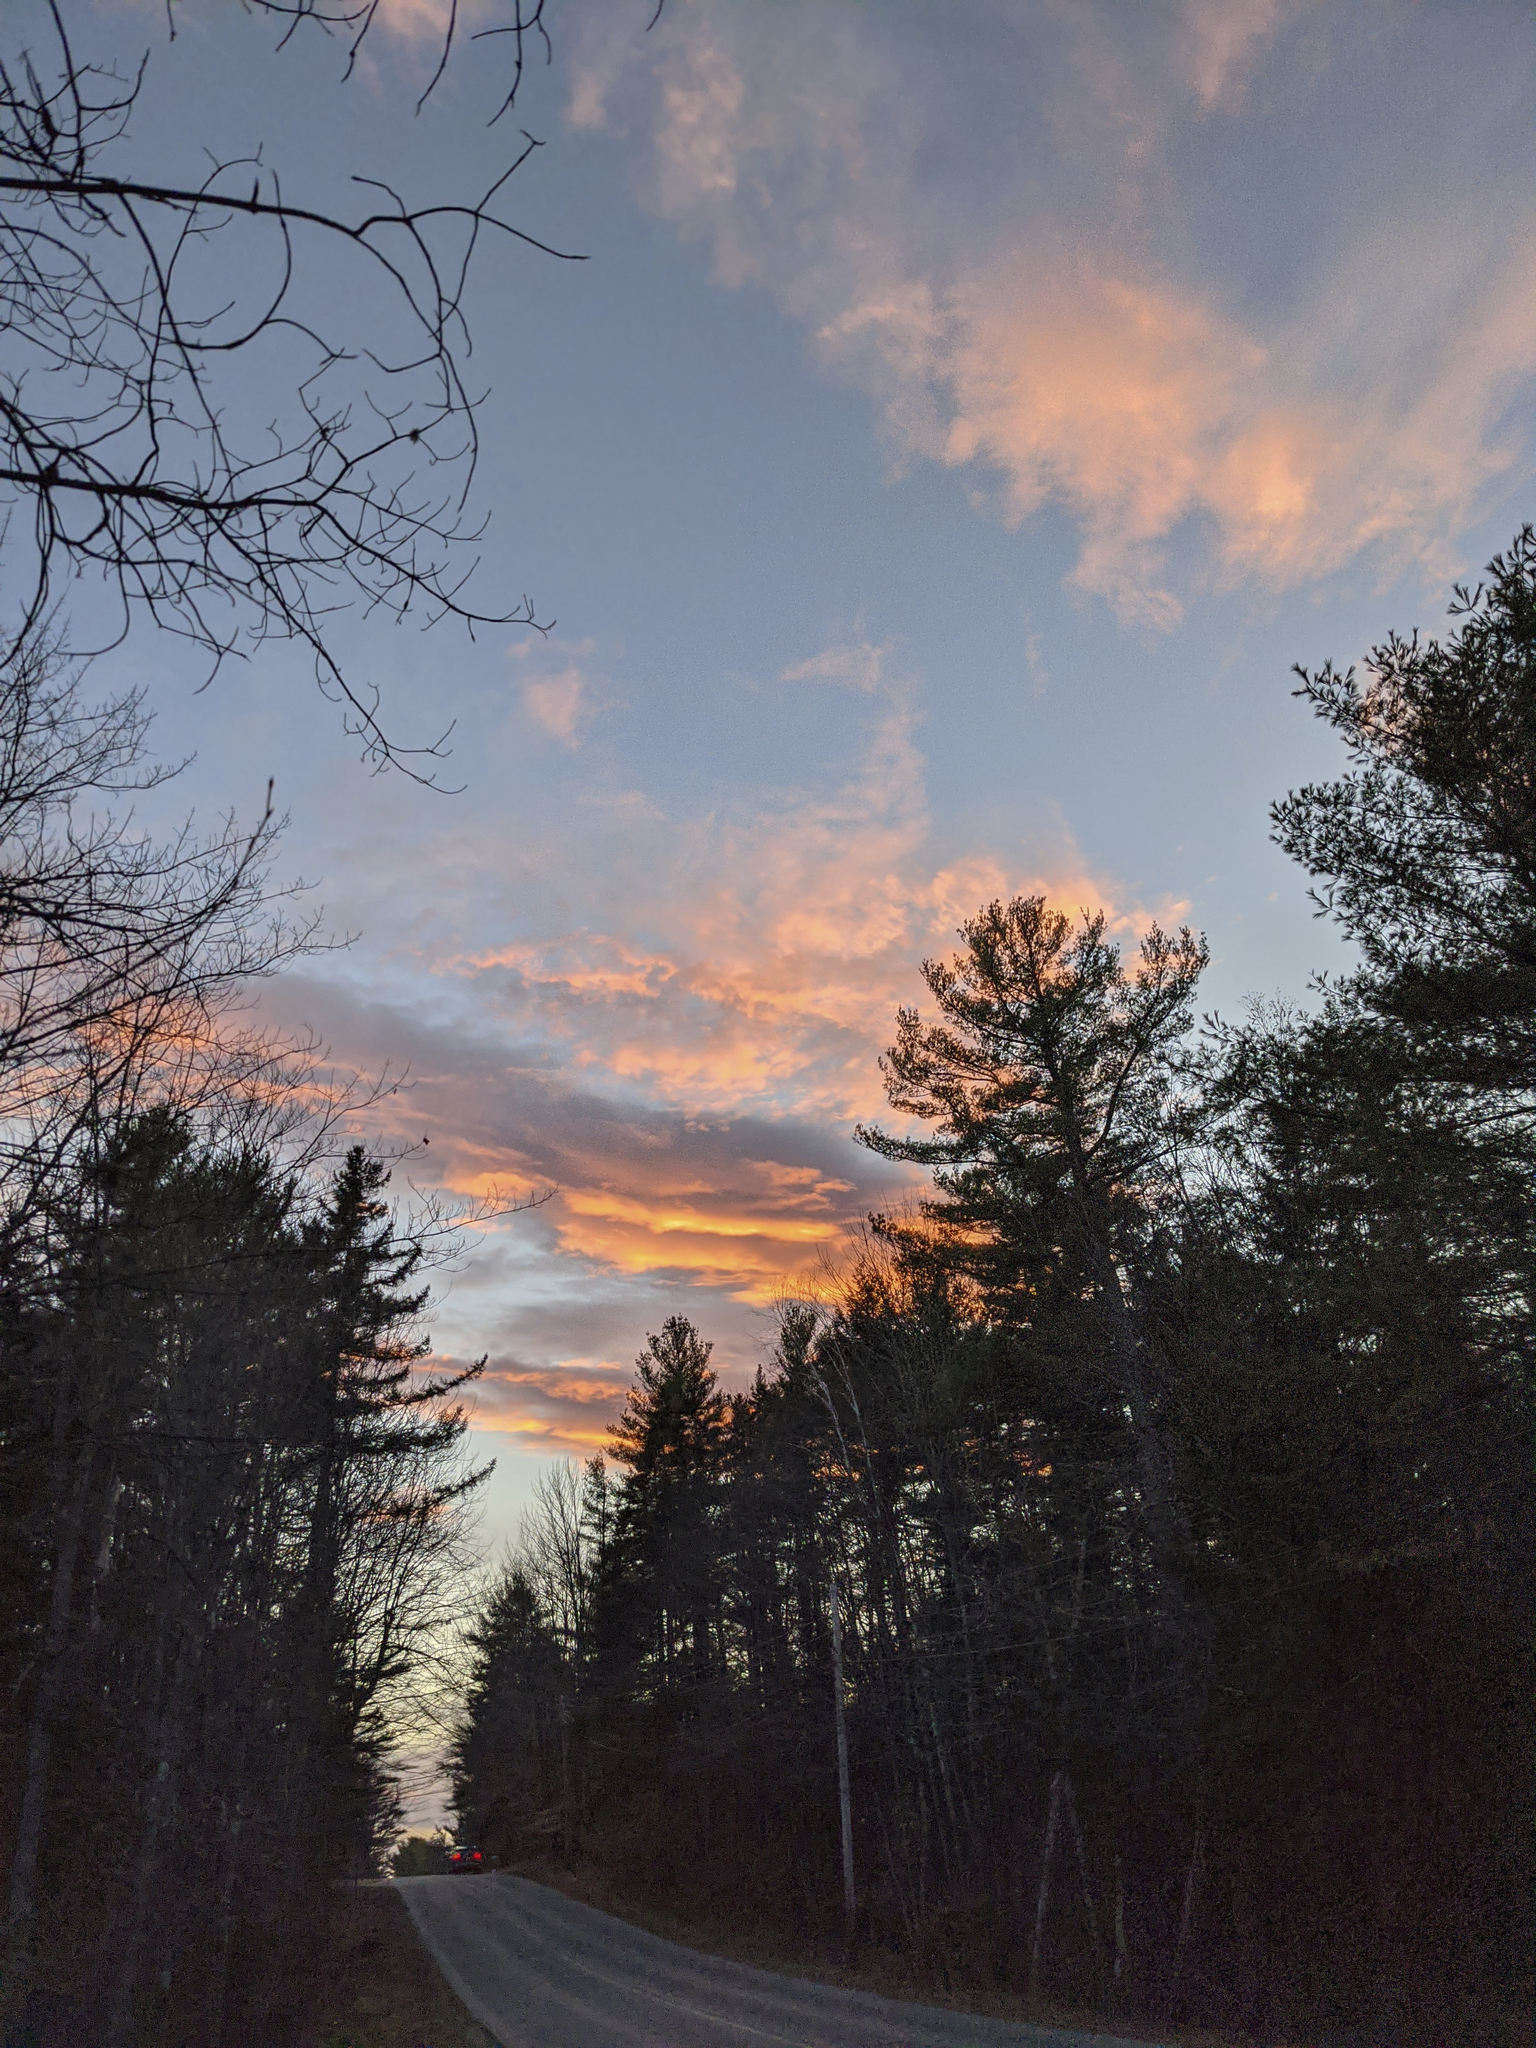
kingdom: Plantae
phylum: Tracheophyta
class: Pinopsida
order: Pinales
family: Pinaceae
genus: Pinus
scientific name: Pinus strobus
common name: Weymouth pine
